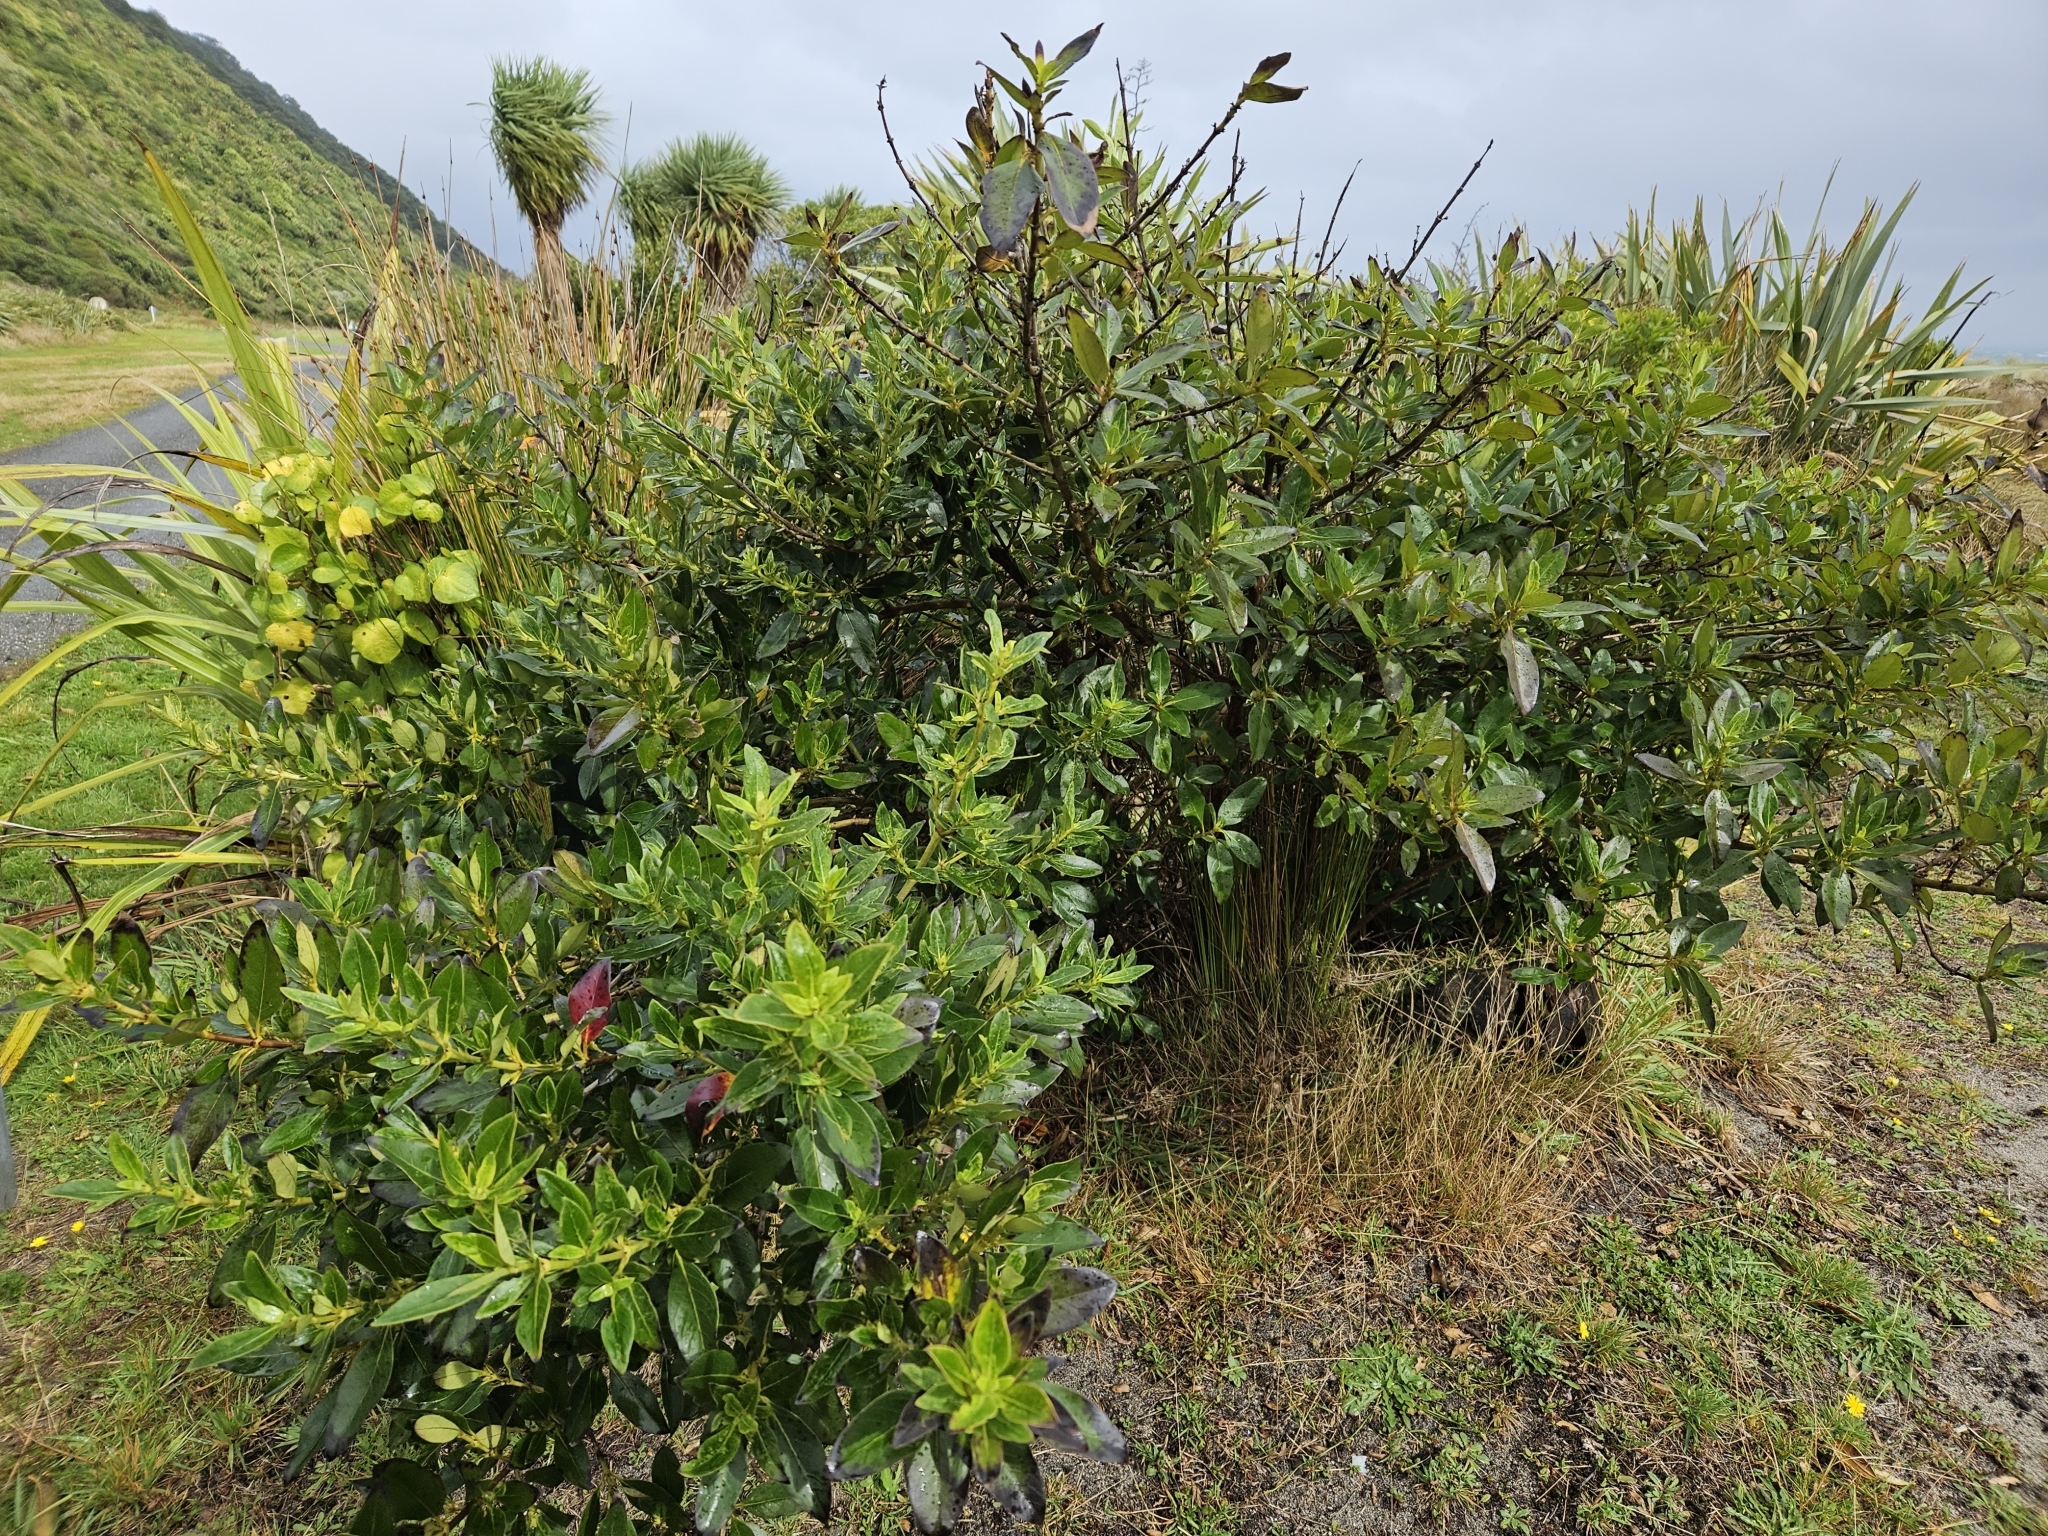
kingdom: Plantae
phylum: Tracheophyta
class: Magnoliopsida
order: Gentianales
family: Rubiaceae
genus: Coprosma
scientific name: Coprosma robusta
